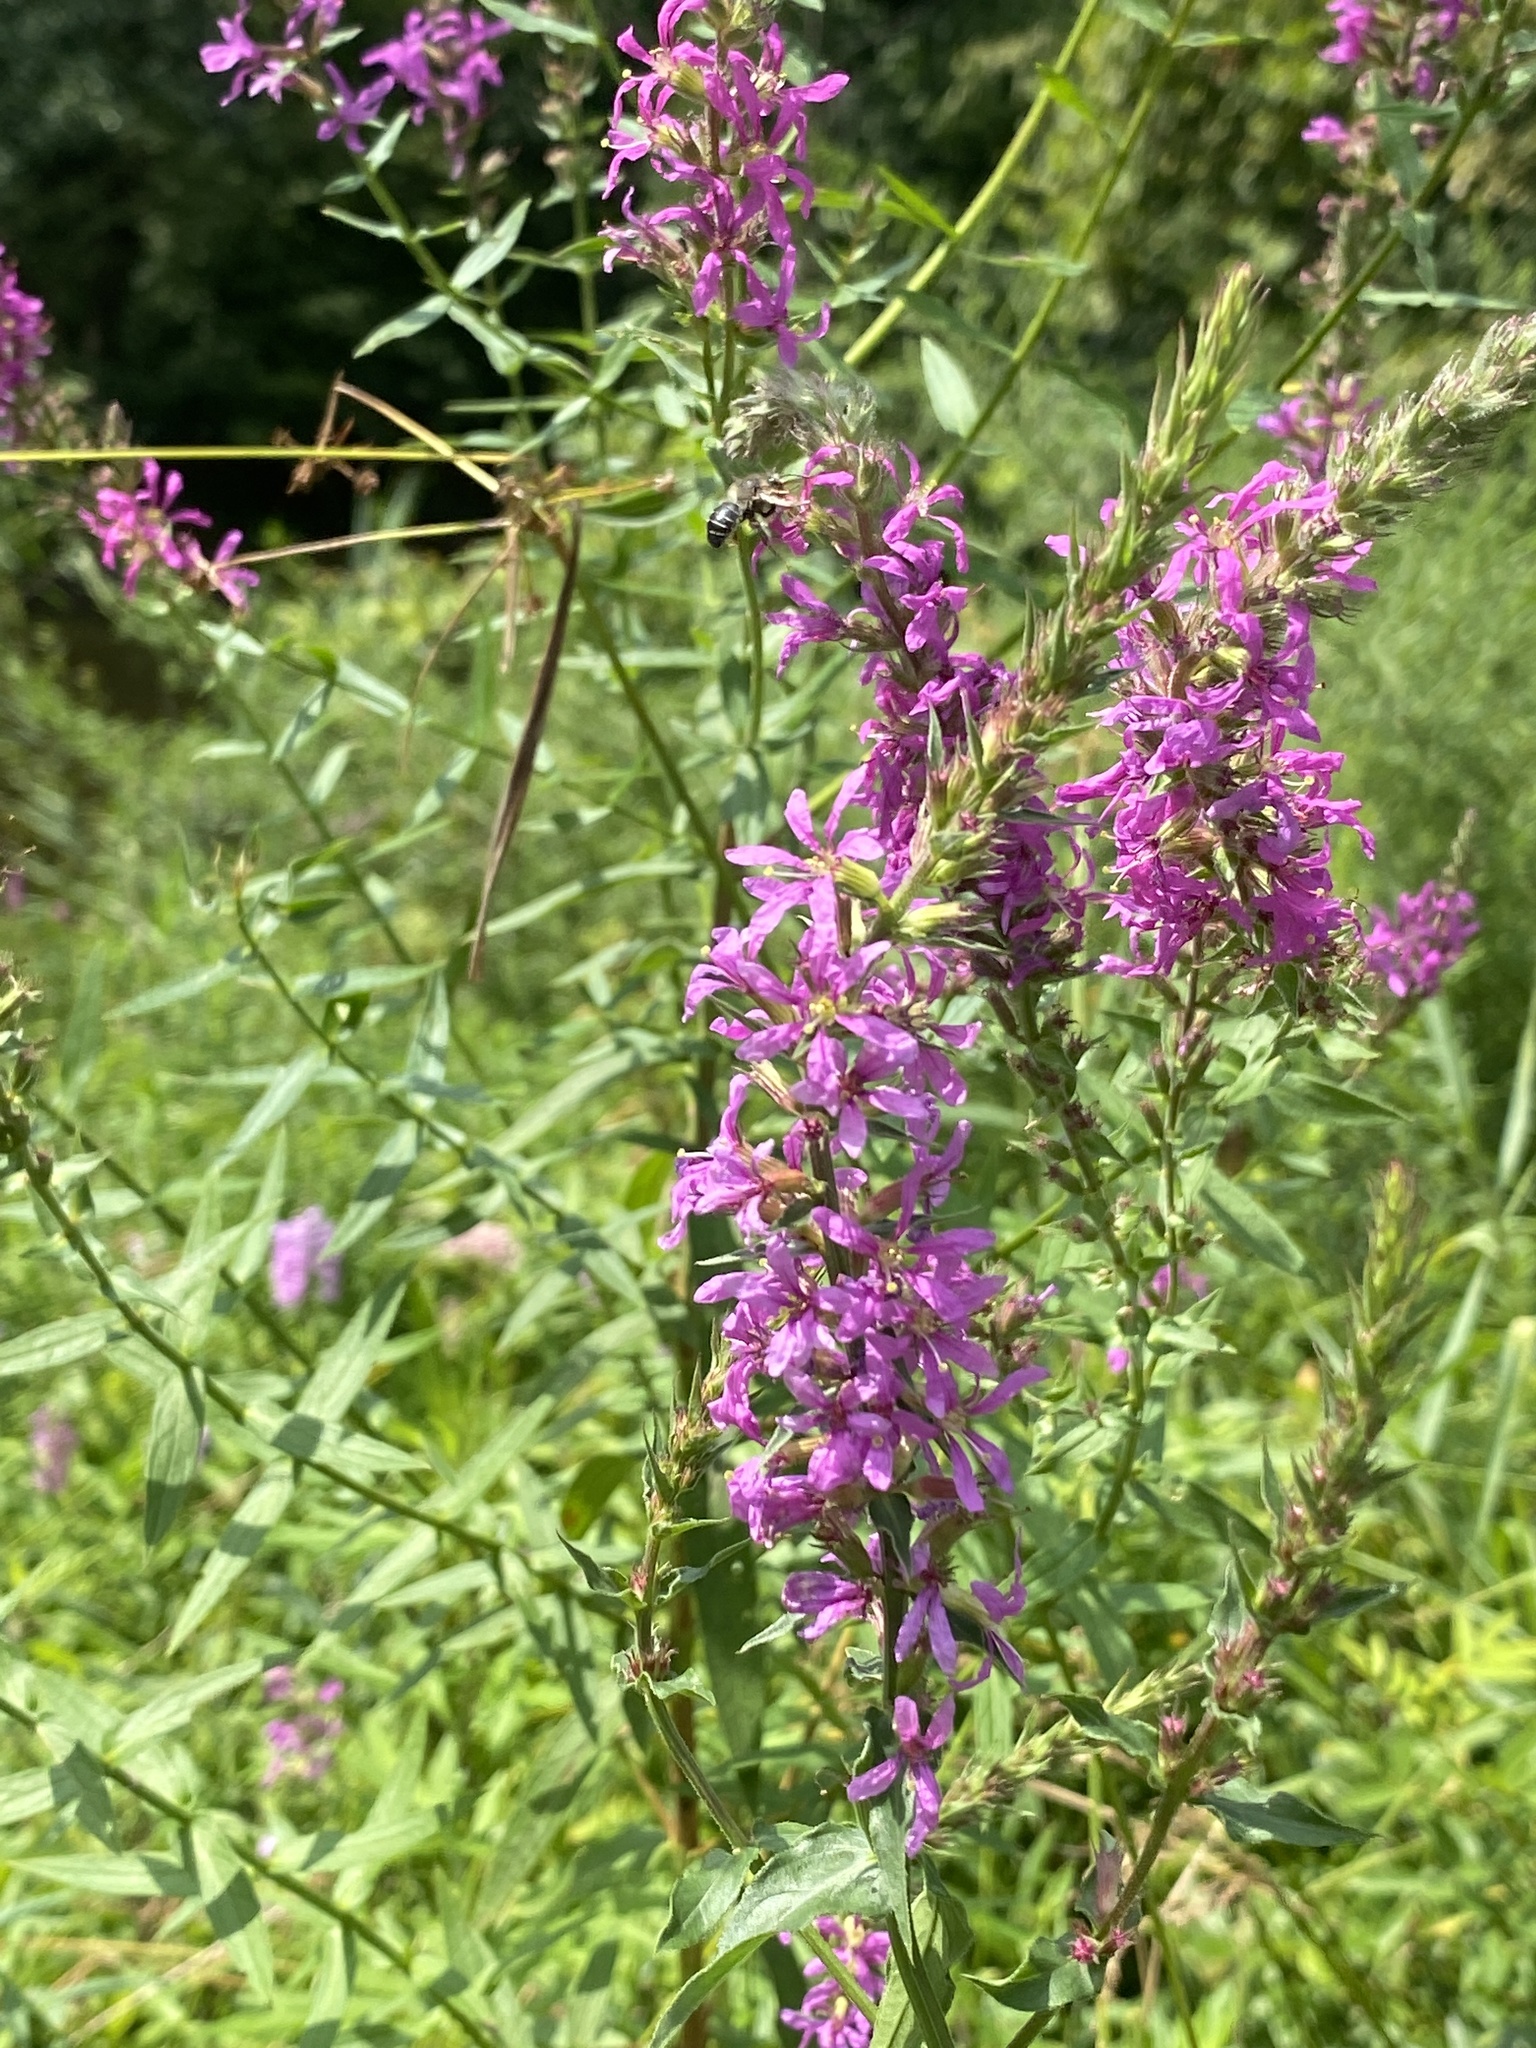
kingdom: Plantae
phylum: Tracheophyta
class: Magnoliopsida
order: Myrtales
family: Lythraceae
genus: Lythrum
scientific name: Lythrum salicaria
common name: Purple loosestrife
